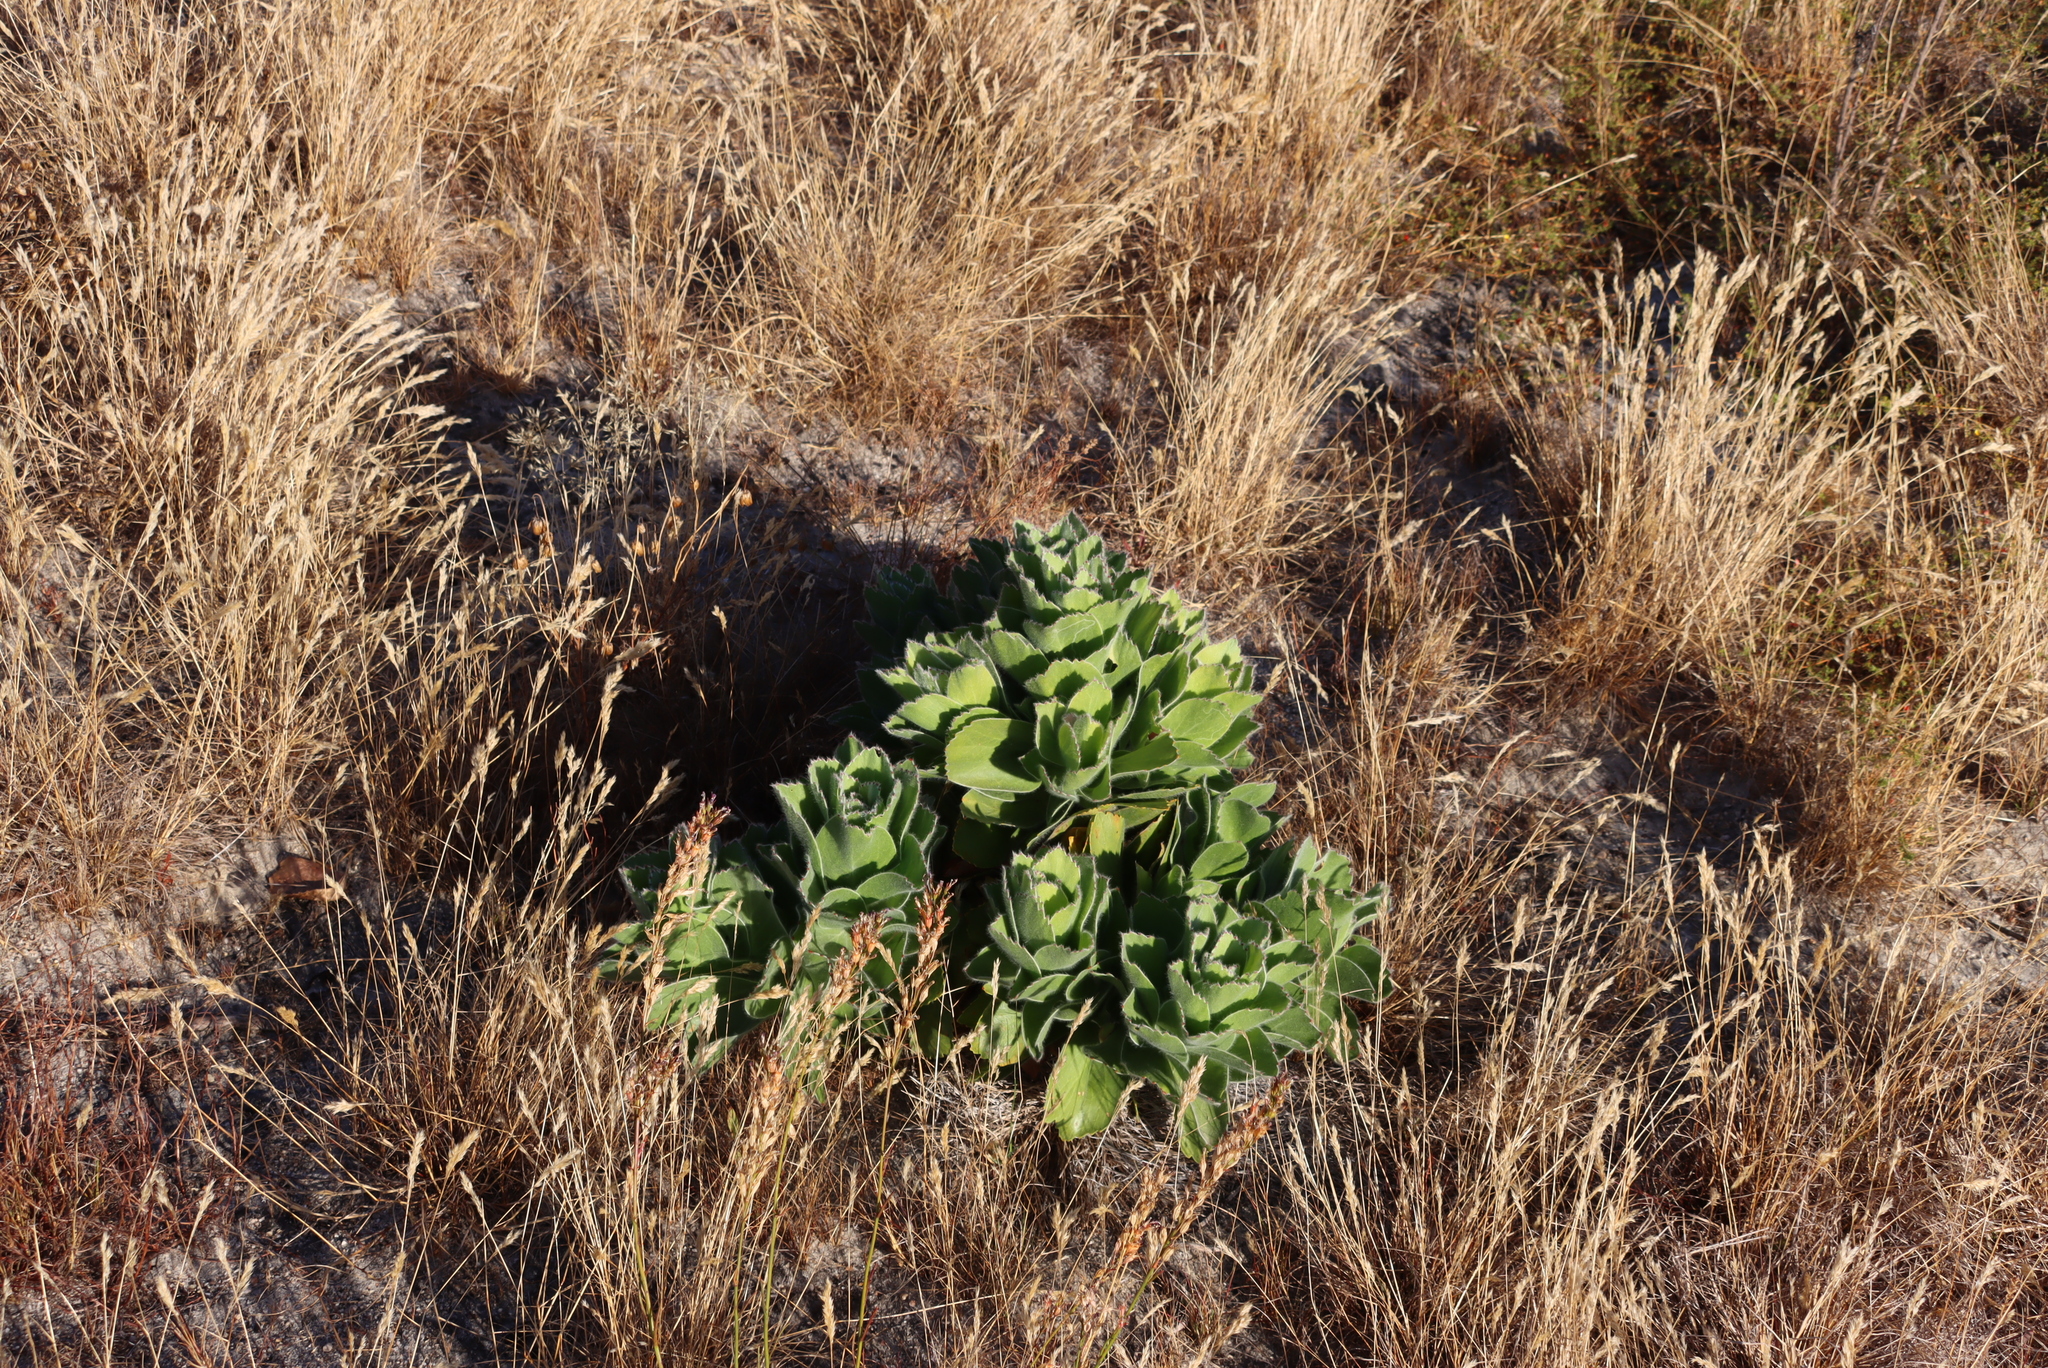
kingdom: Plantae
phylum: Tracheophyta
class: Magnoliopsida
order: Proteales
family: Proteaceae
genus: Leucospermum
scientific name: Leucospermum conocarpodendron
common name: Tree pincushion
